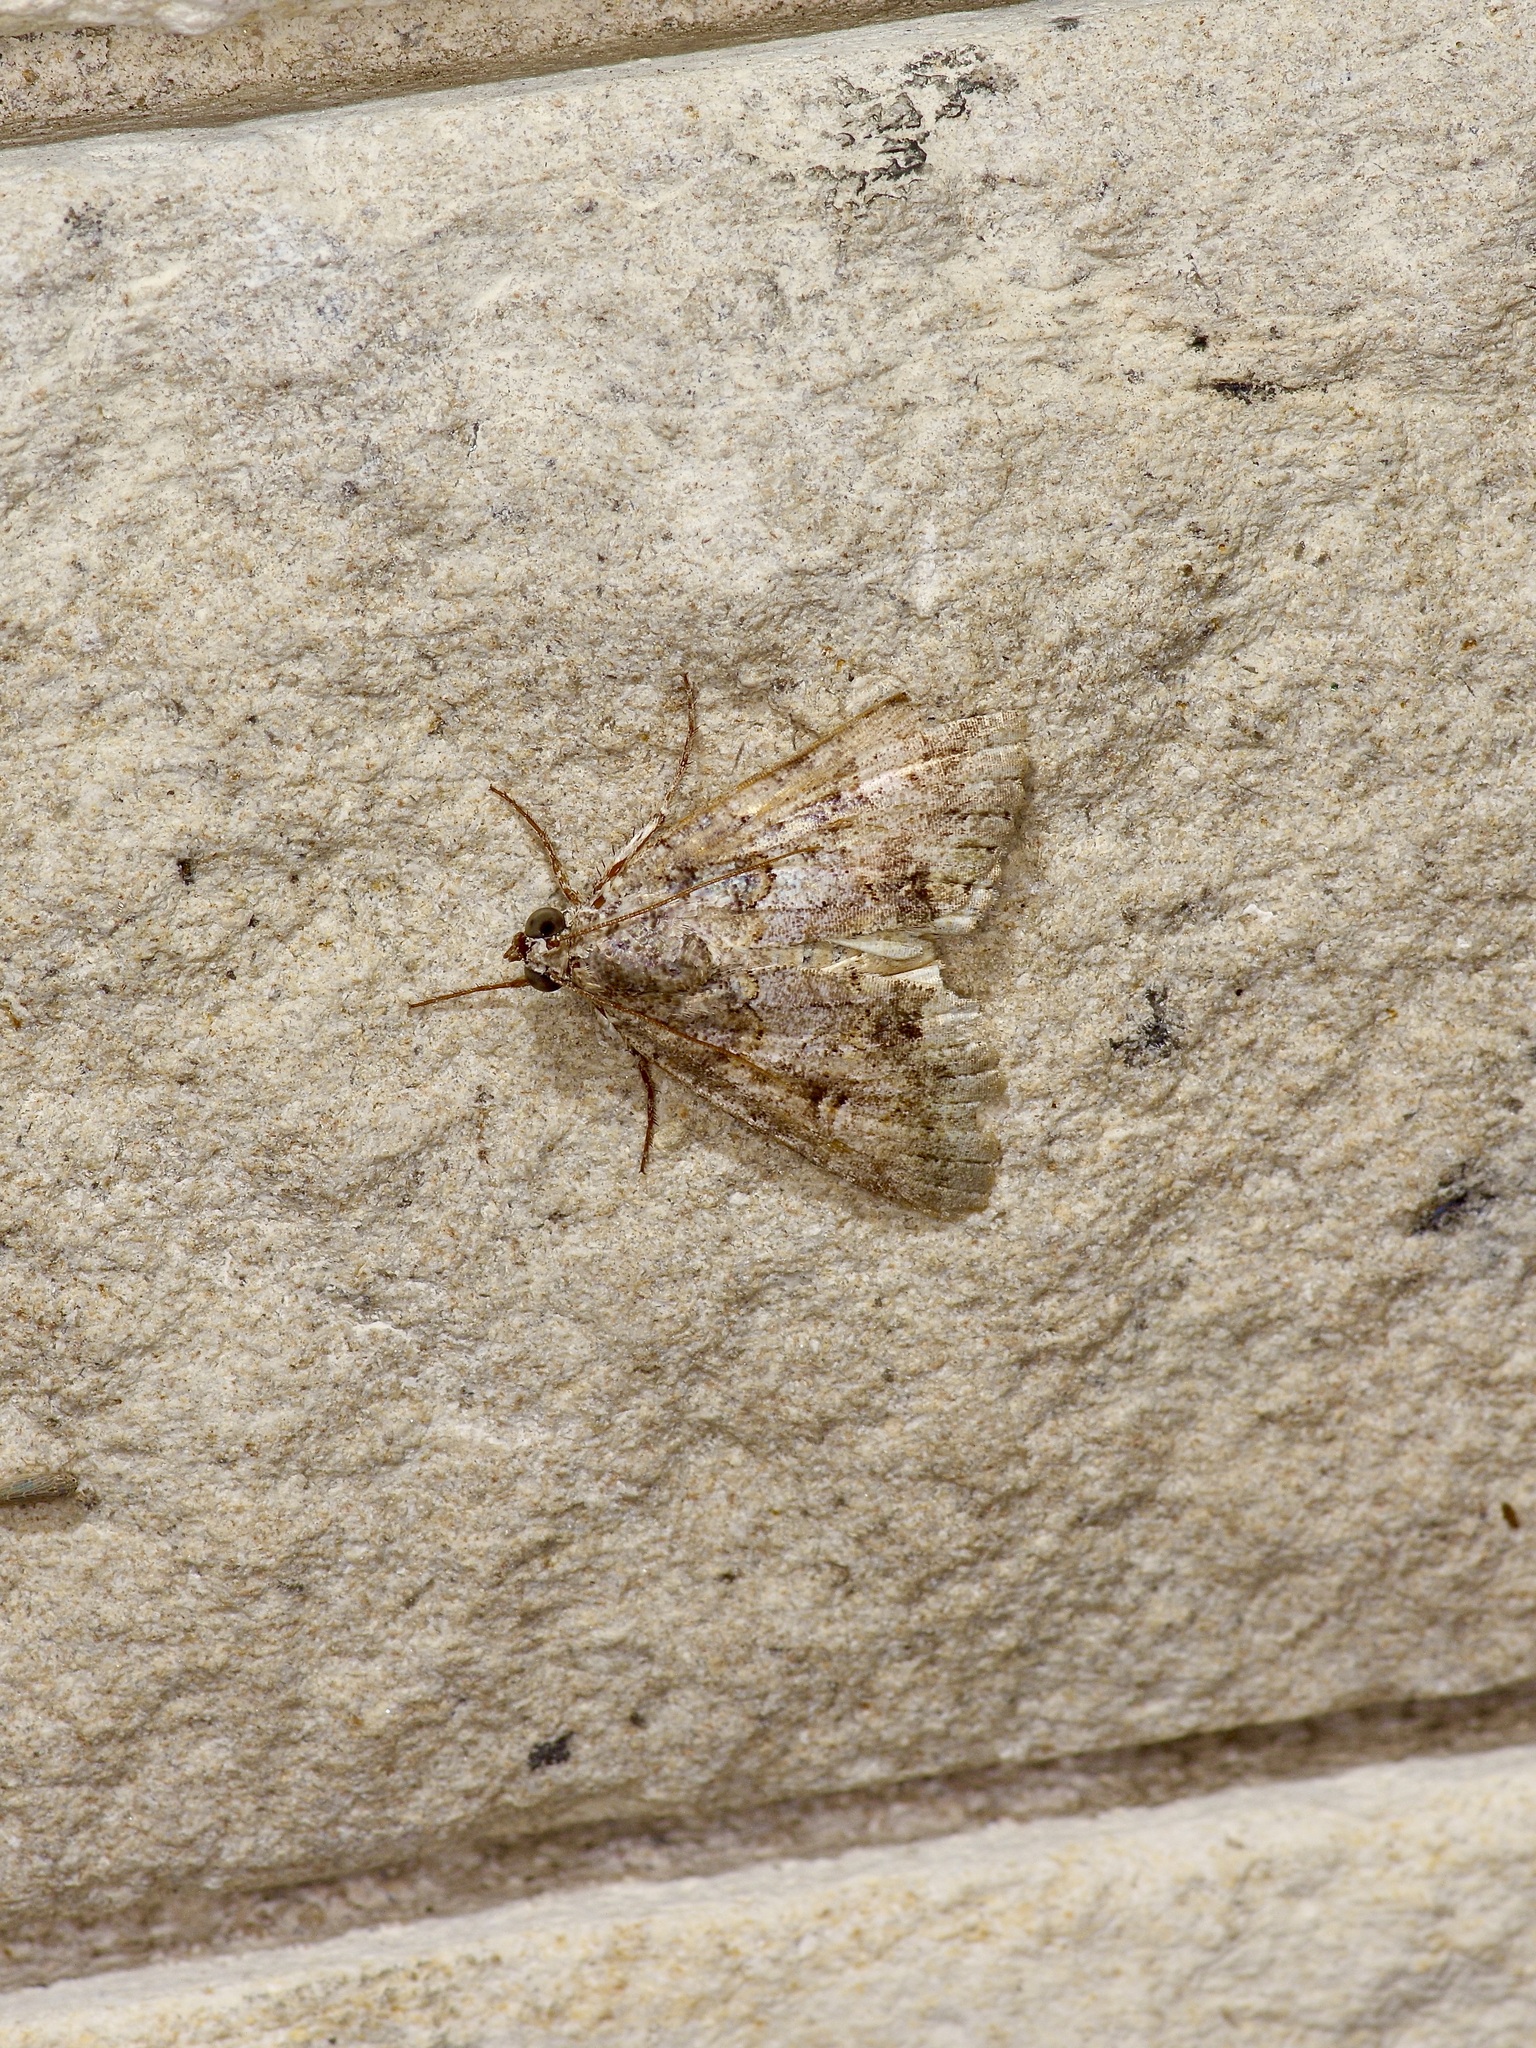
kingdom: Animalia
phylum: Arthropoda
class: Insecta
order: Lepidoptera
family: Erebidae
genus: Eubolina
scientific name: Eubolina impartialis
